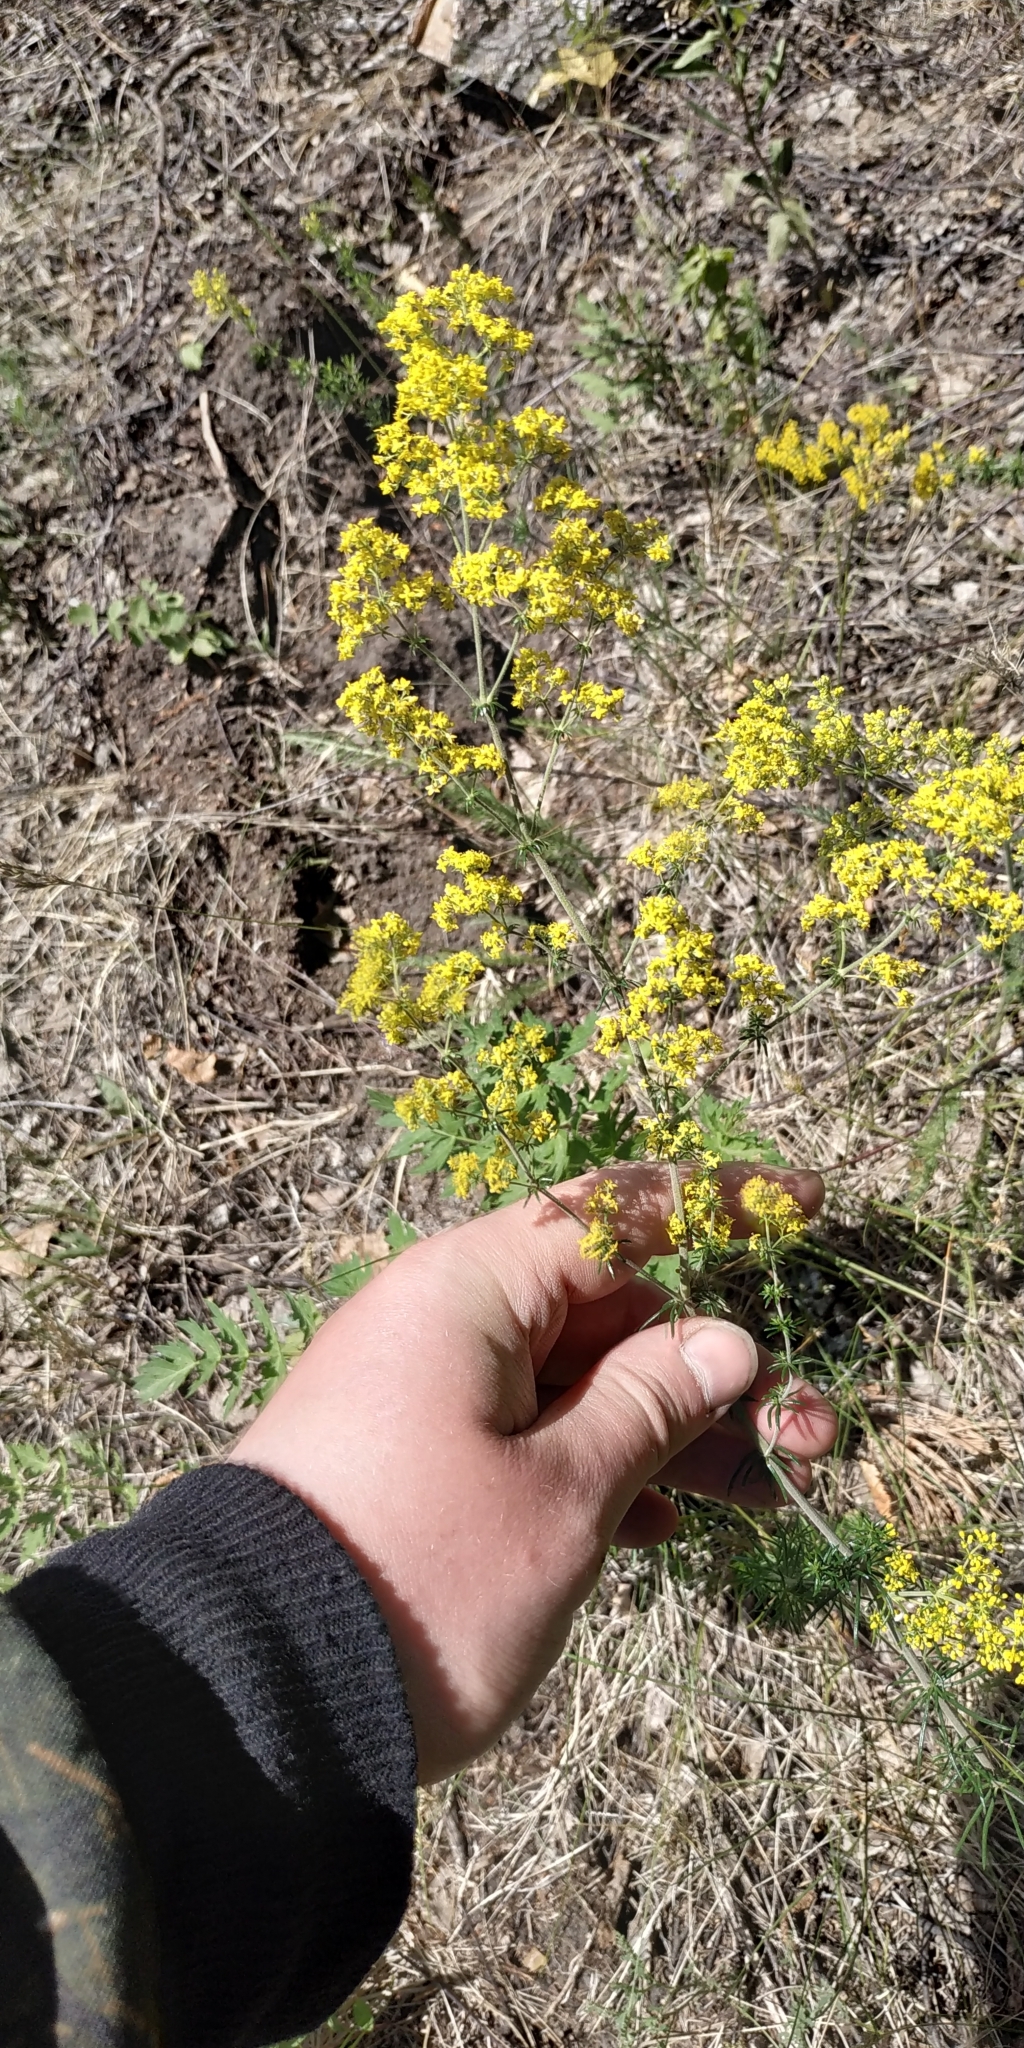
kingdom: Plantae
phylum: Tracheophyta
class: Magnoliopsida
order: Gentianales
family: Rubiaceae
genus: Galium
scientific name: Galium verum
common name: Lady's bedstraw
